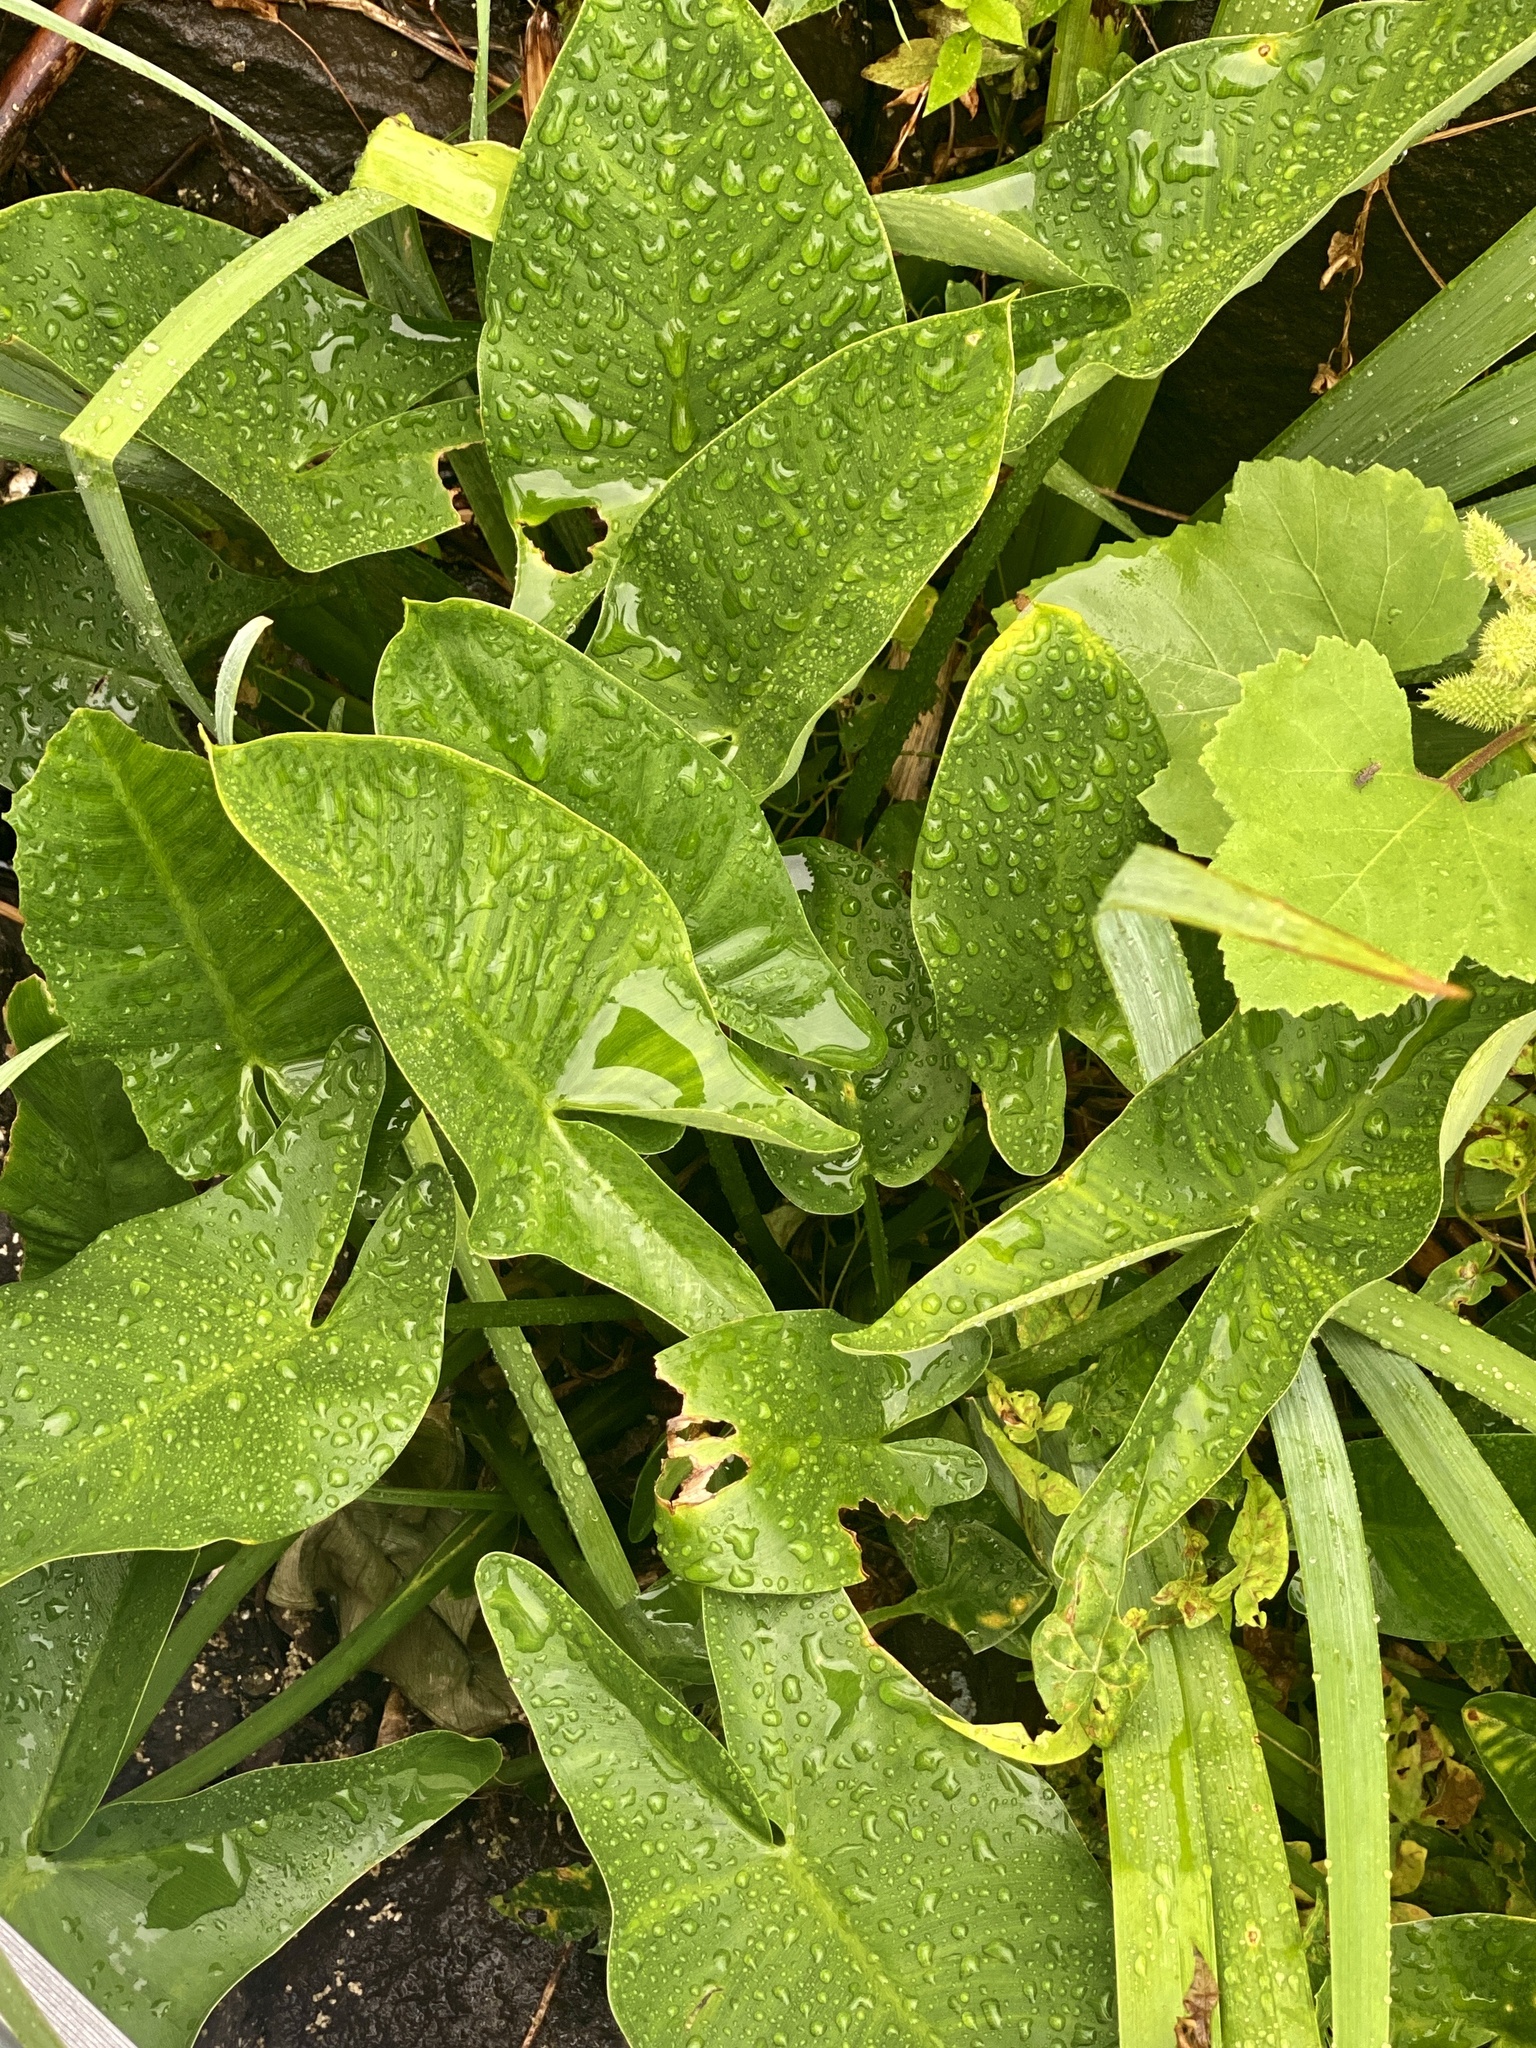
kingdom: Plantae
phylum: Tracheophyta
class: Liliopsida
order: Alismatales
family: Araceae
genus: Peltandra
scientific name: Peltandra virginica
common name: Arrow arum
